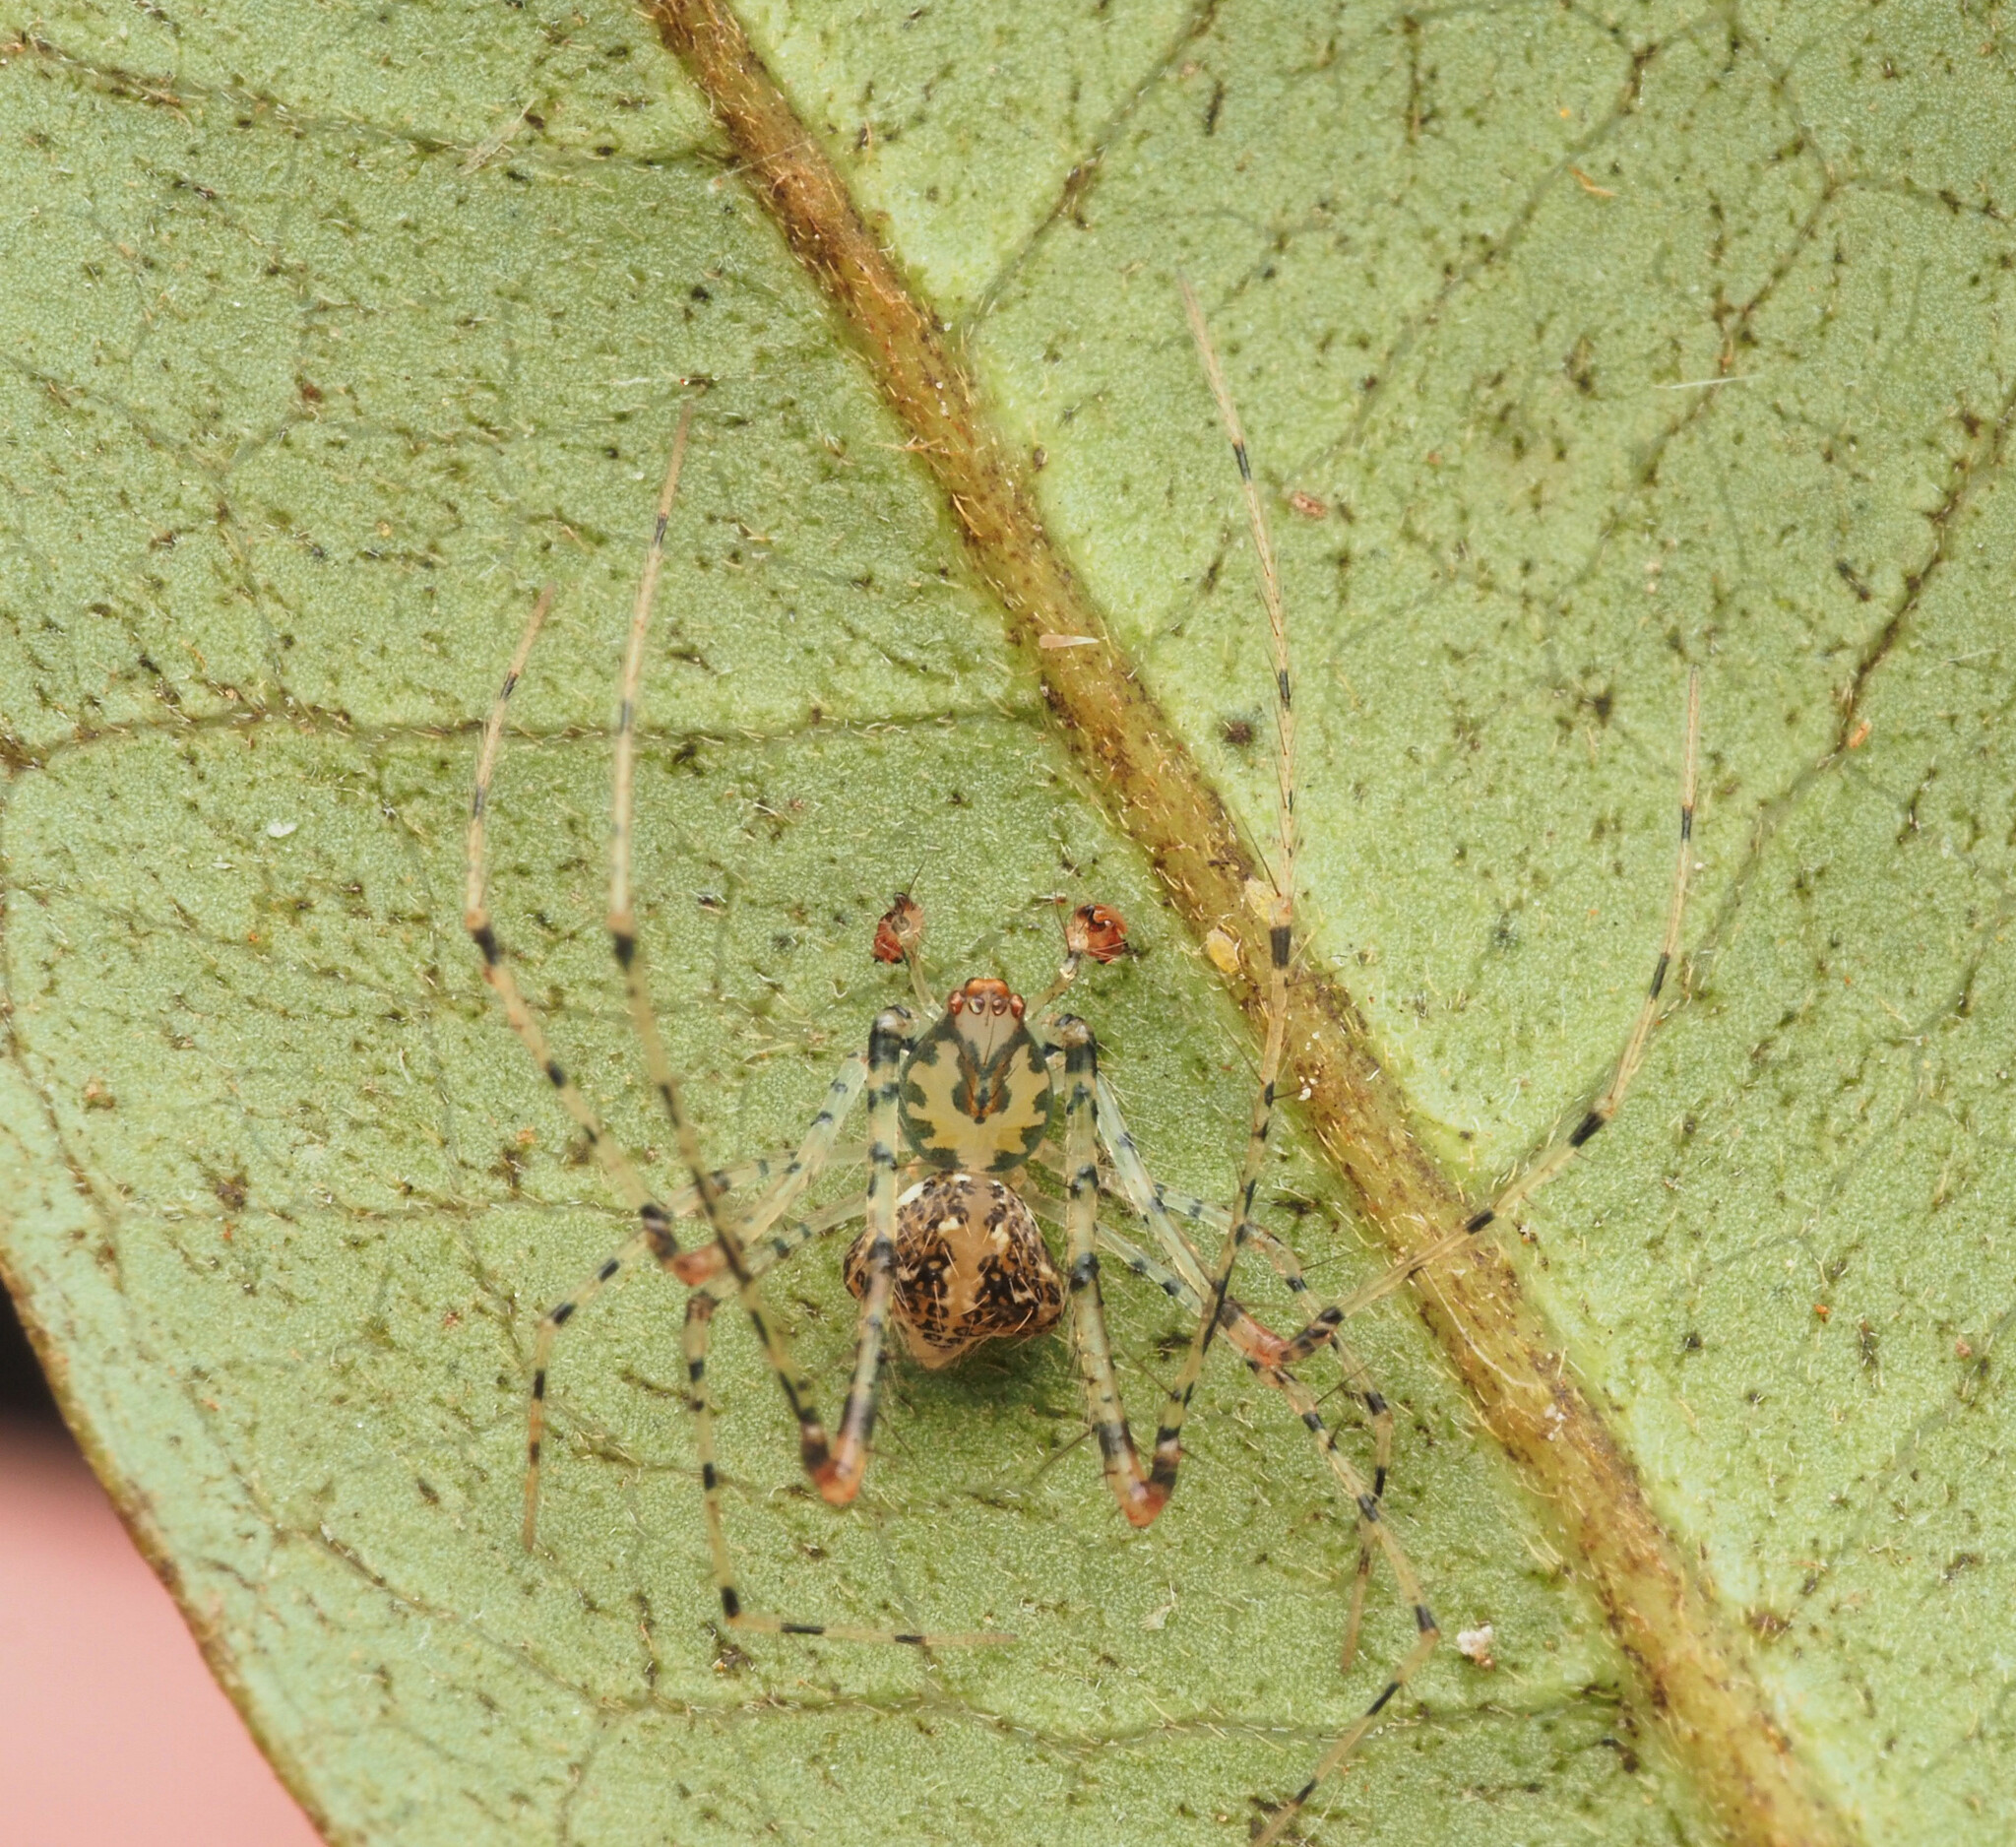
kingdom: Animalia
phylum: Arthropoda
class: Arachnida
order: Araneae
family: Mimetidae
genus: Australomimetus
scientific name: Australomimetus triangulosus
